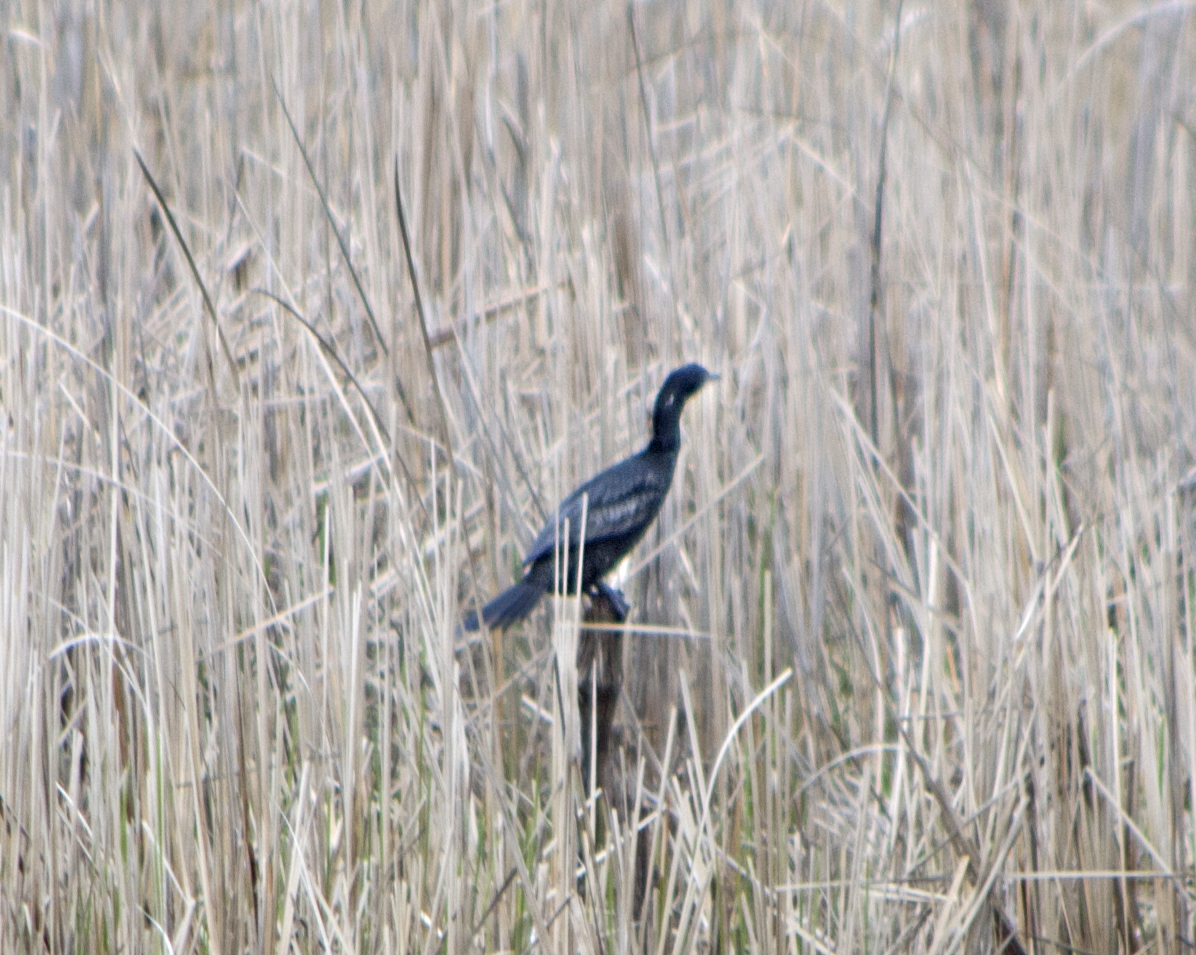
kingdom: Animalia
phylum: Chordata
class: Aves
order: Suliformes
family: Phalacrocoracidae
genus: Microcarbo
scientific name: Microcarbo pygmaeus
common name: Pygmy cormorant
